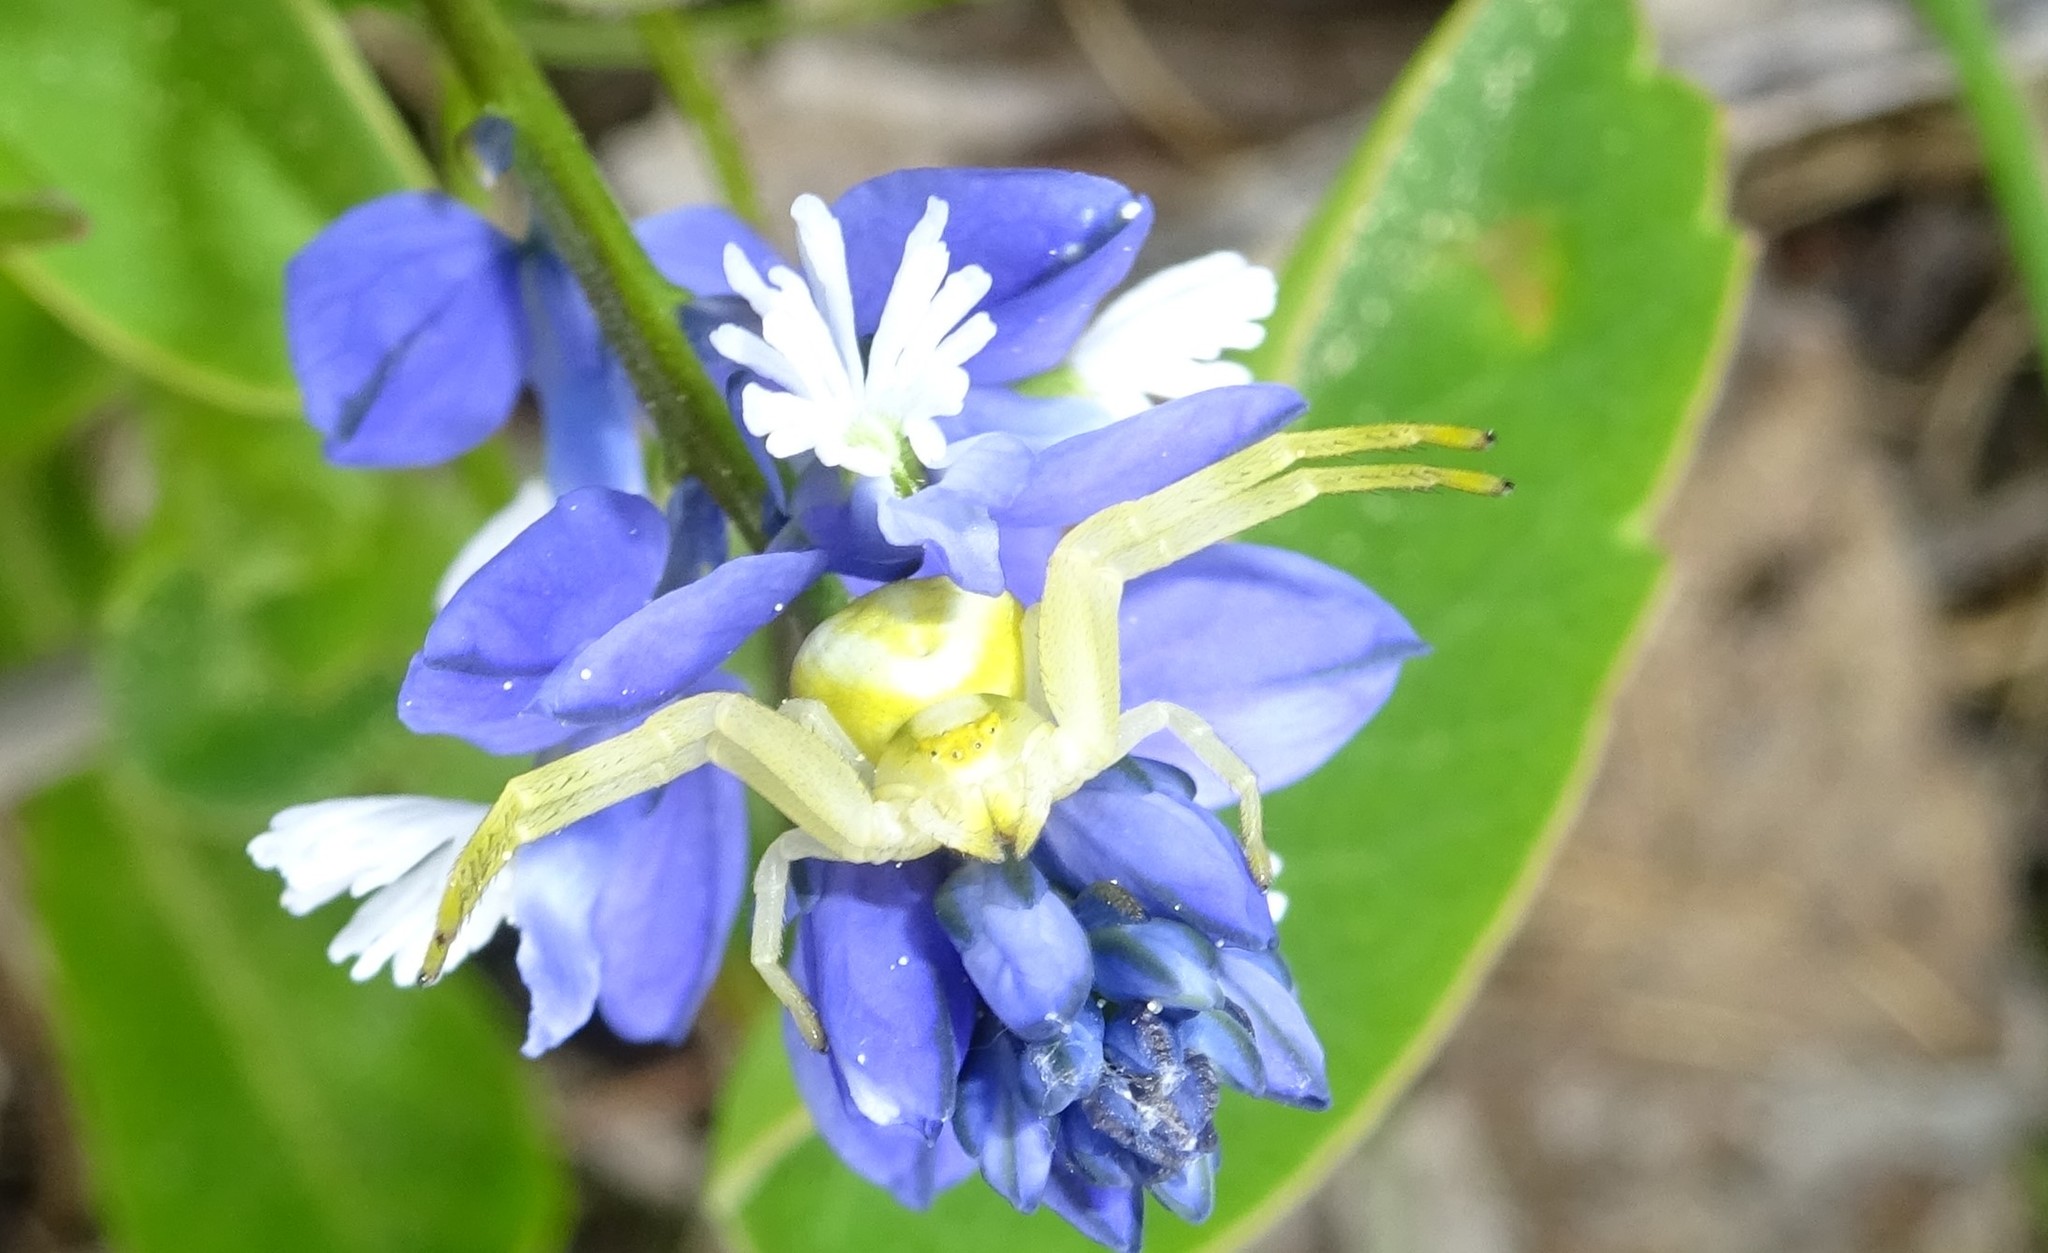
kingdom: Animalia
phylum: Arthropoda
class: Arachnida
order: Araneae
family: Thomisidae
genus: Misumena
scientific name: Misumena vatia
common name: Goldenrod crab spider
